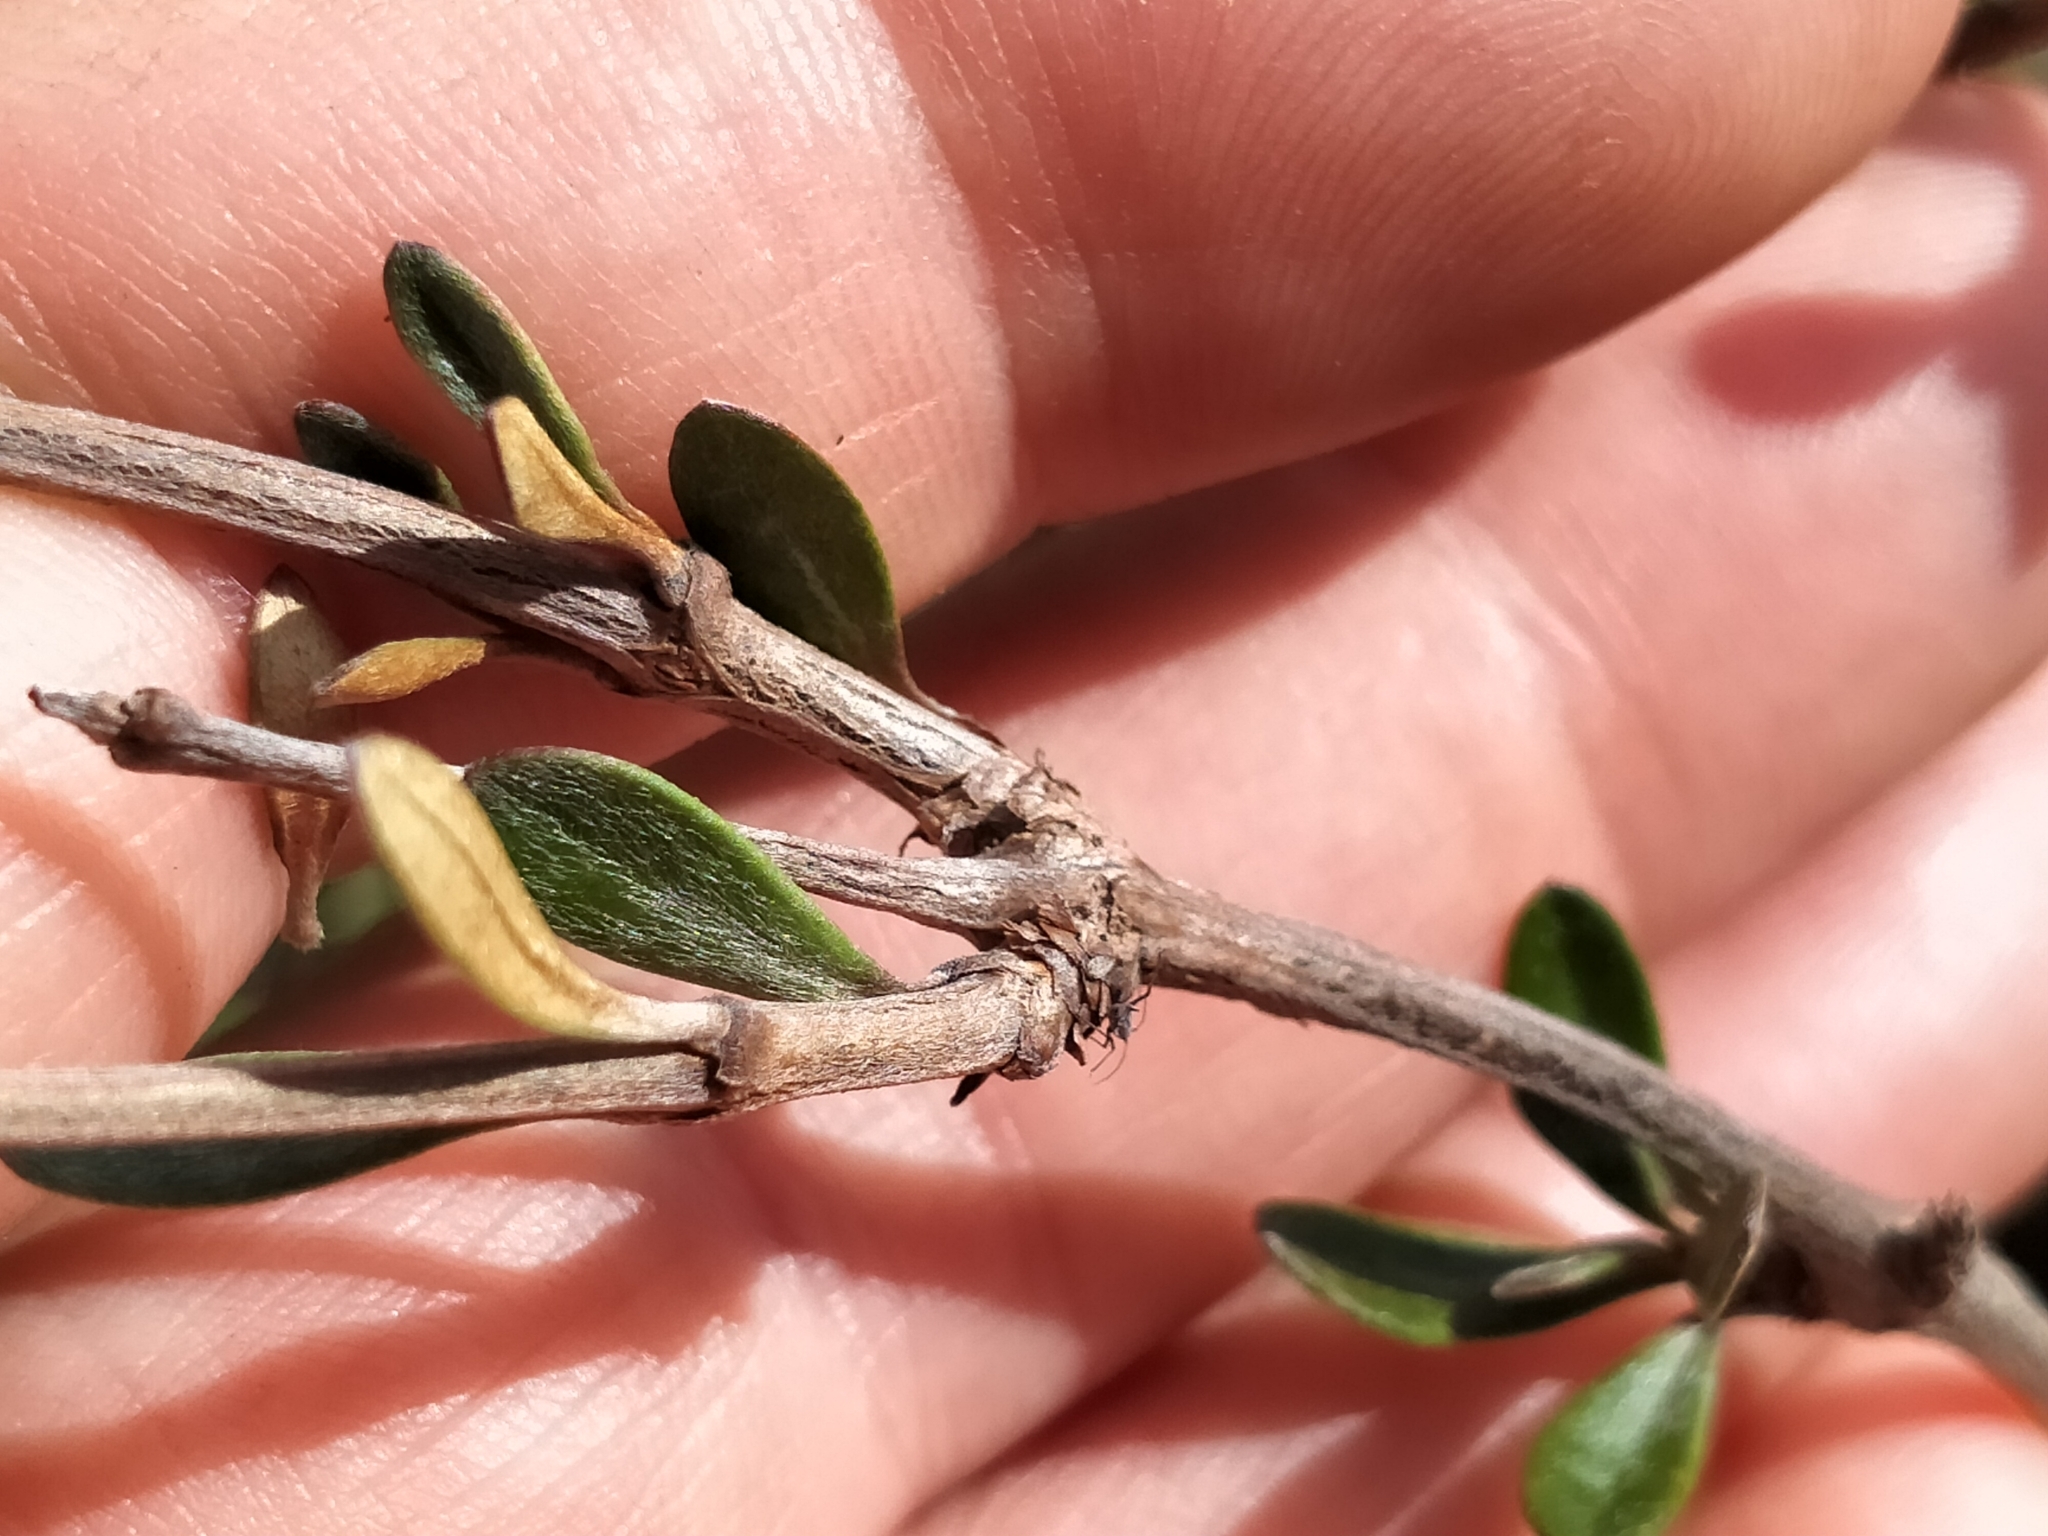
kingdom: Plantae
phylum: Tracheophyta
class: Magnoliopsida
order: Asterales
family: Asteraceae
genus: Olearia
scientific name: Olearia laxiflora
